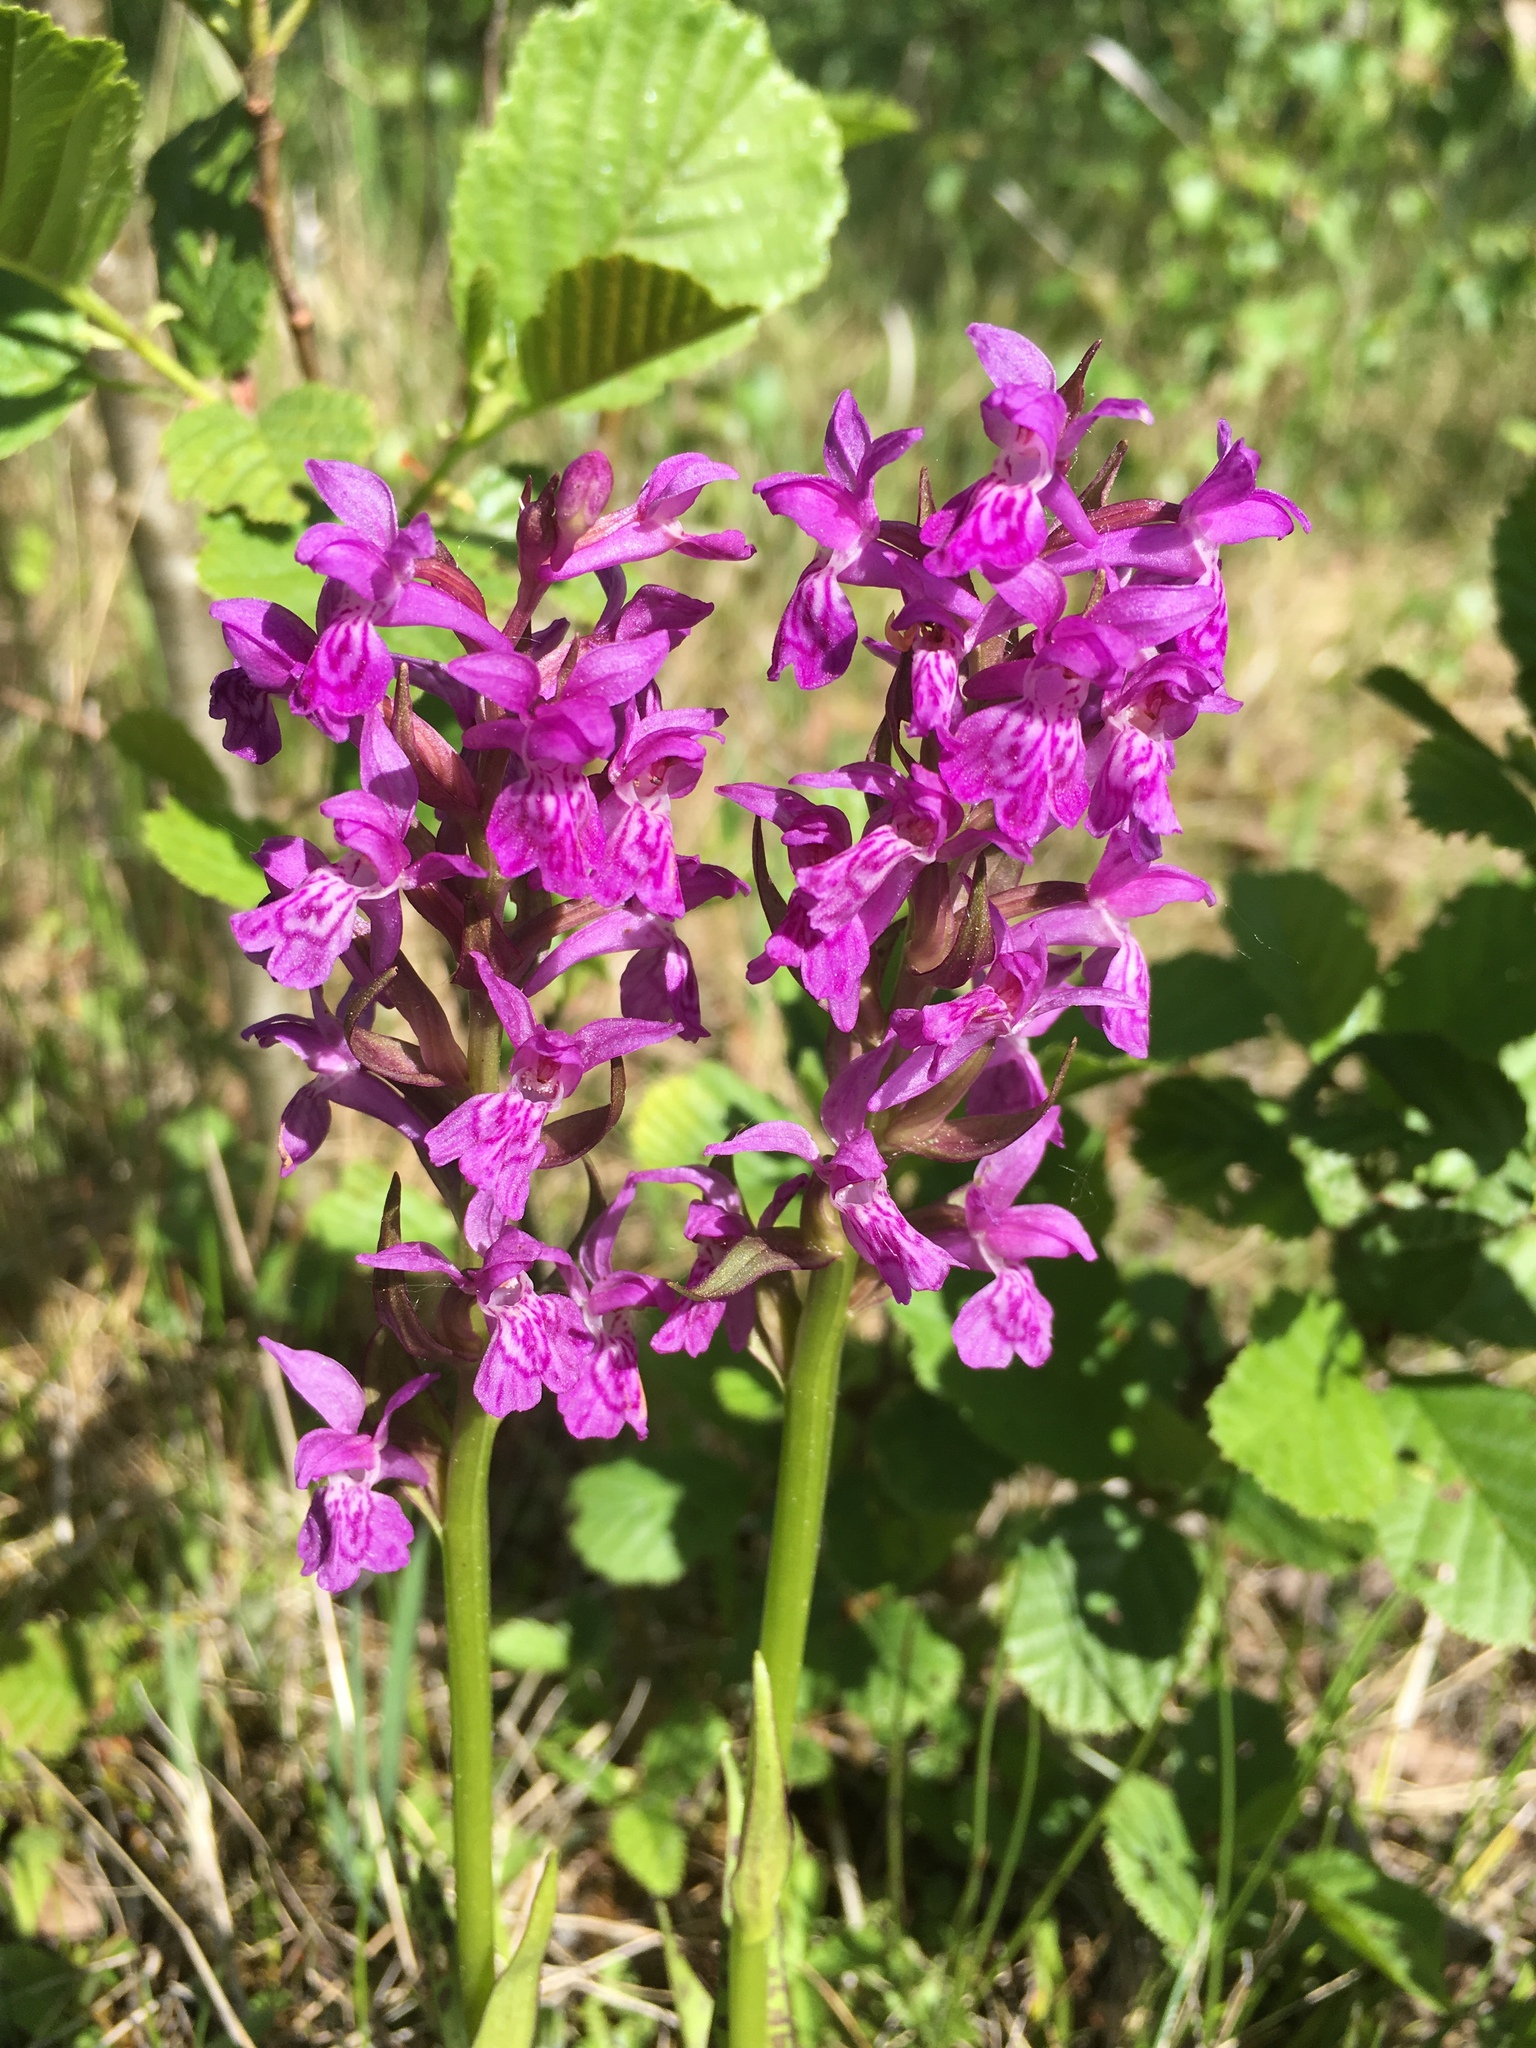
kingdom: Plantae
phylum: Tracheophyta
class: Liliopsida
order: Asparagales
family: Orchidaceae
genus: Dactylorhiza
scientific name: Dactylorhiza majalis
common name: Marsh orchid
